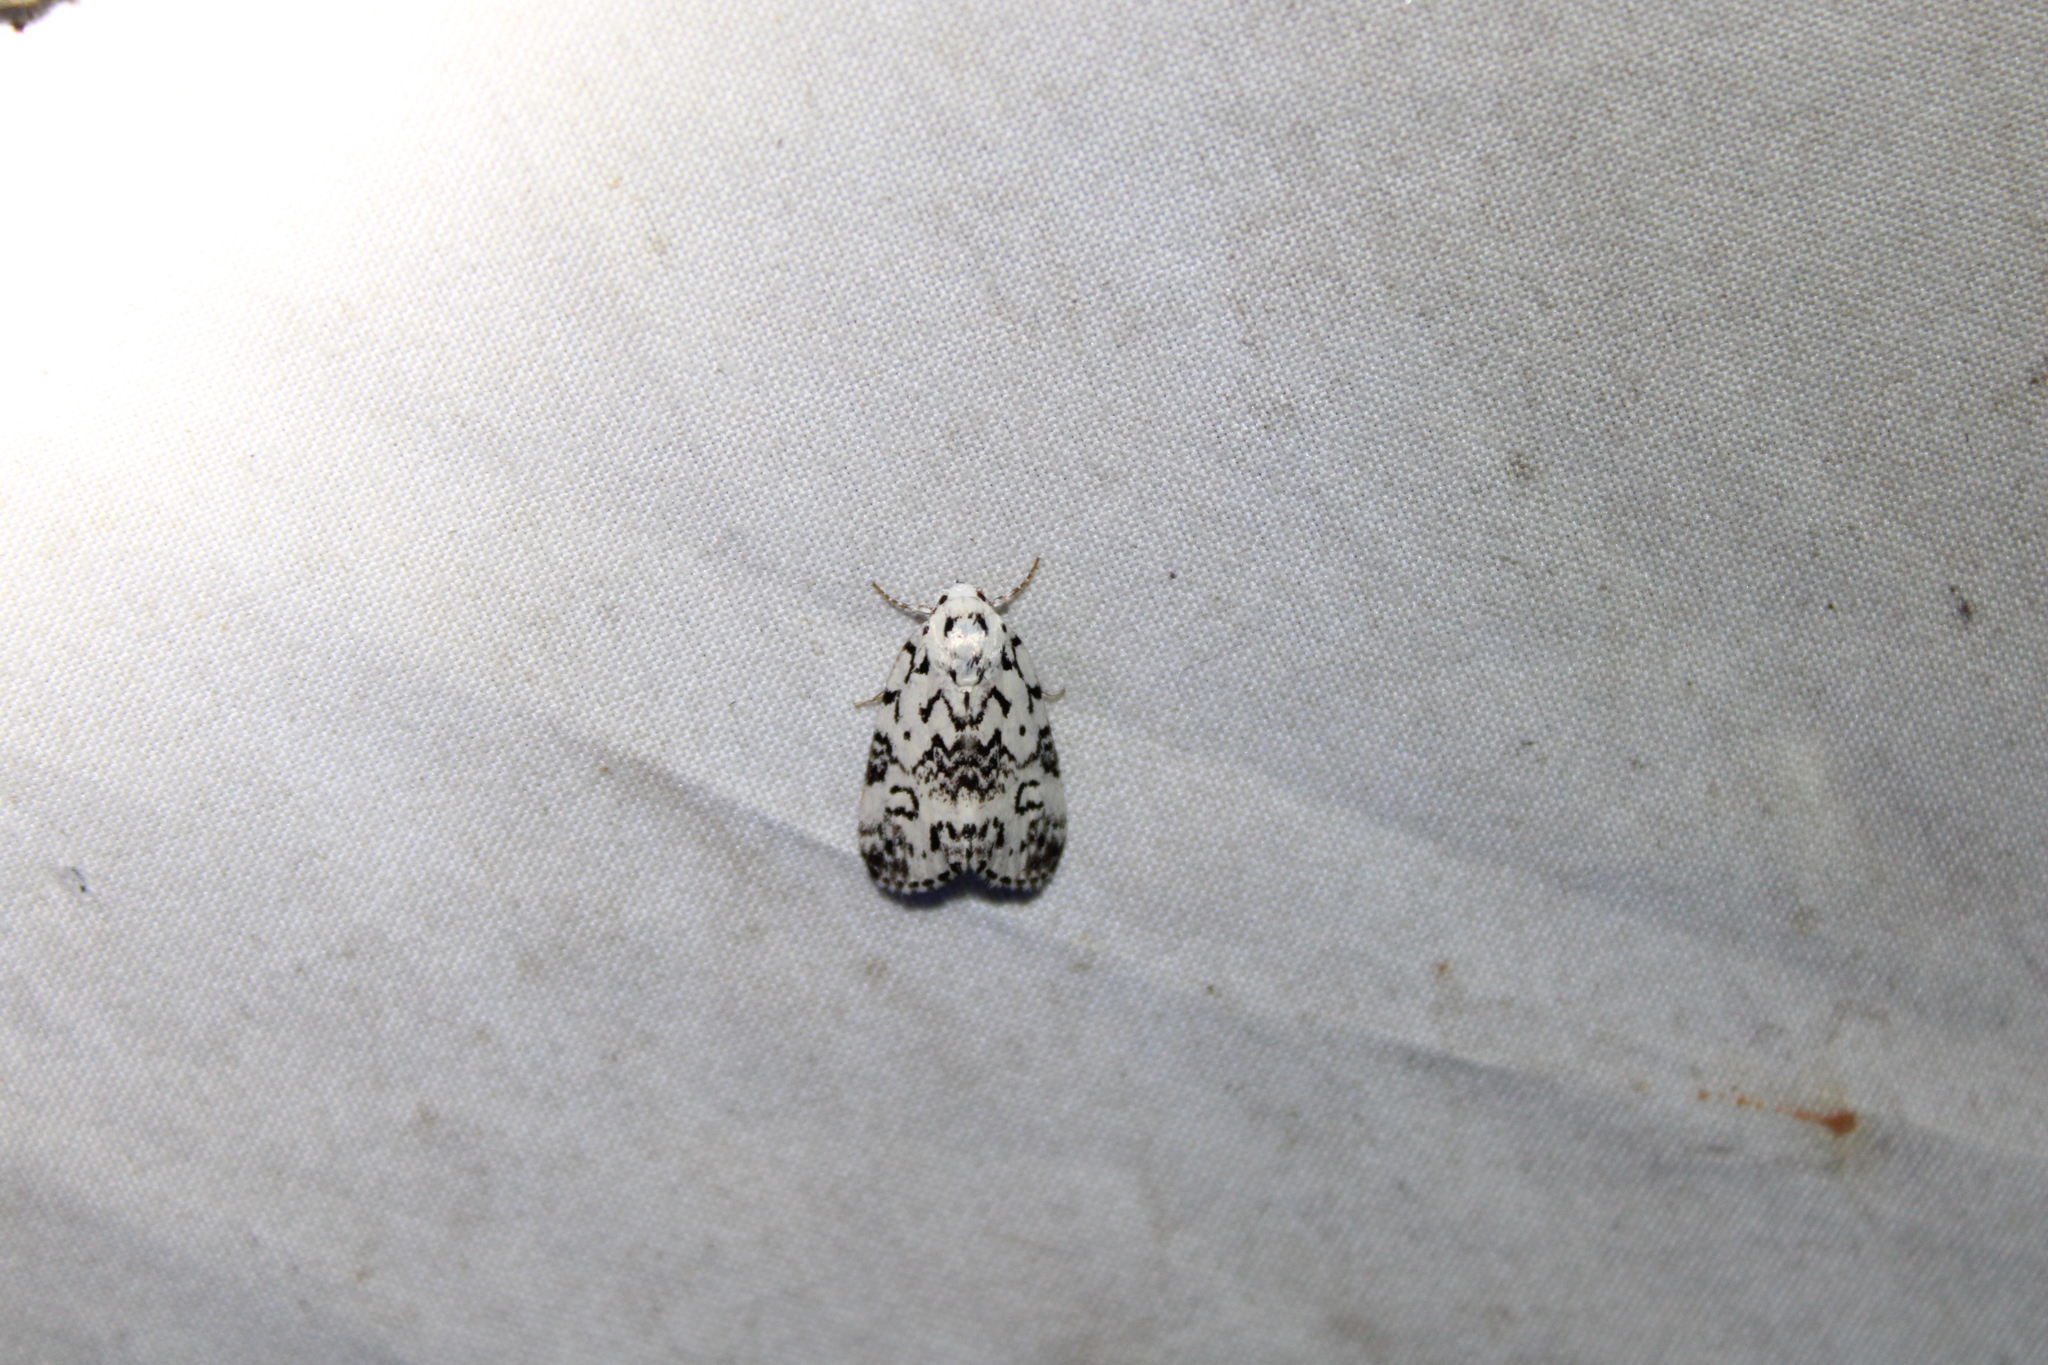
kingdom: Animalia
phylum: Arthropoda
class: Insecta
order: Lepidoptera
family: Noctuidae
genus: Polygrammate
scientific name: Polygrammate hebraeicum
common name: Hebrew moth
